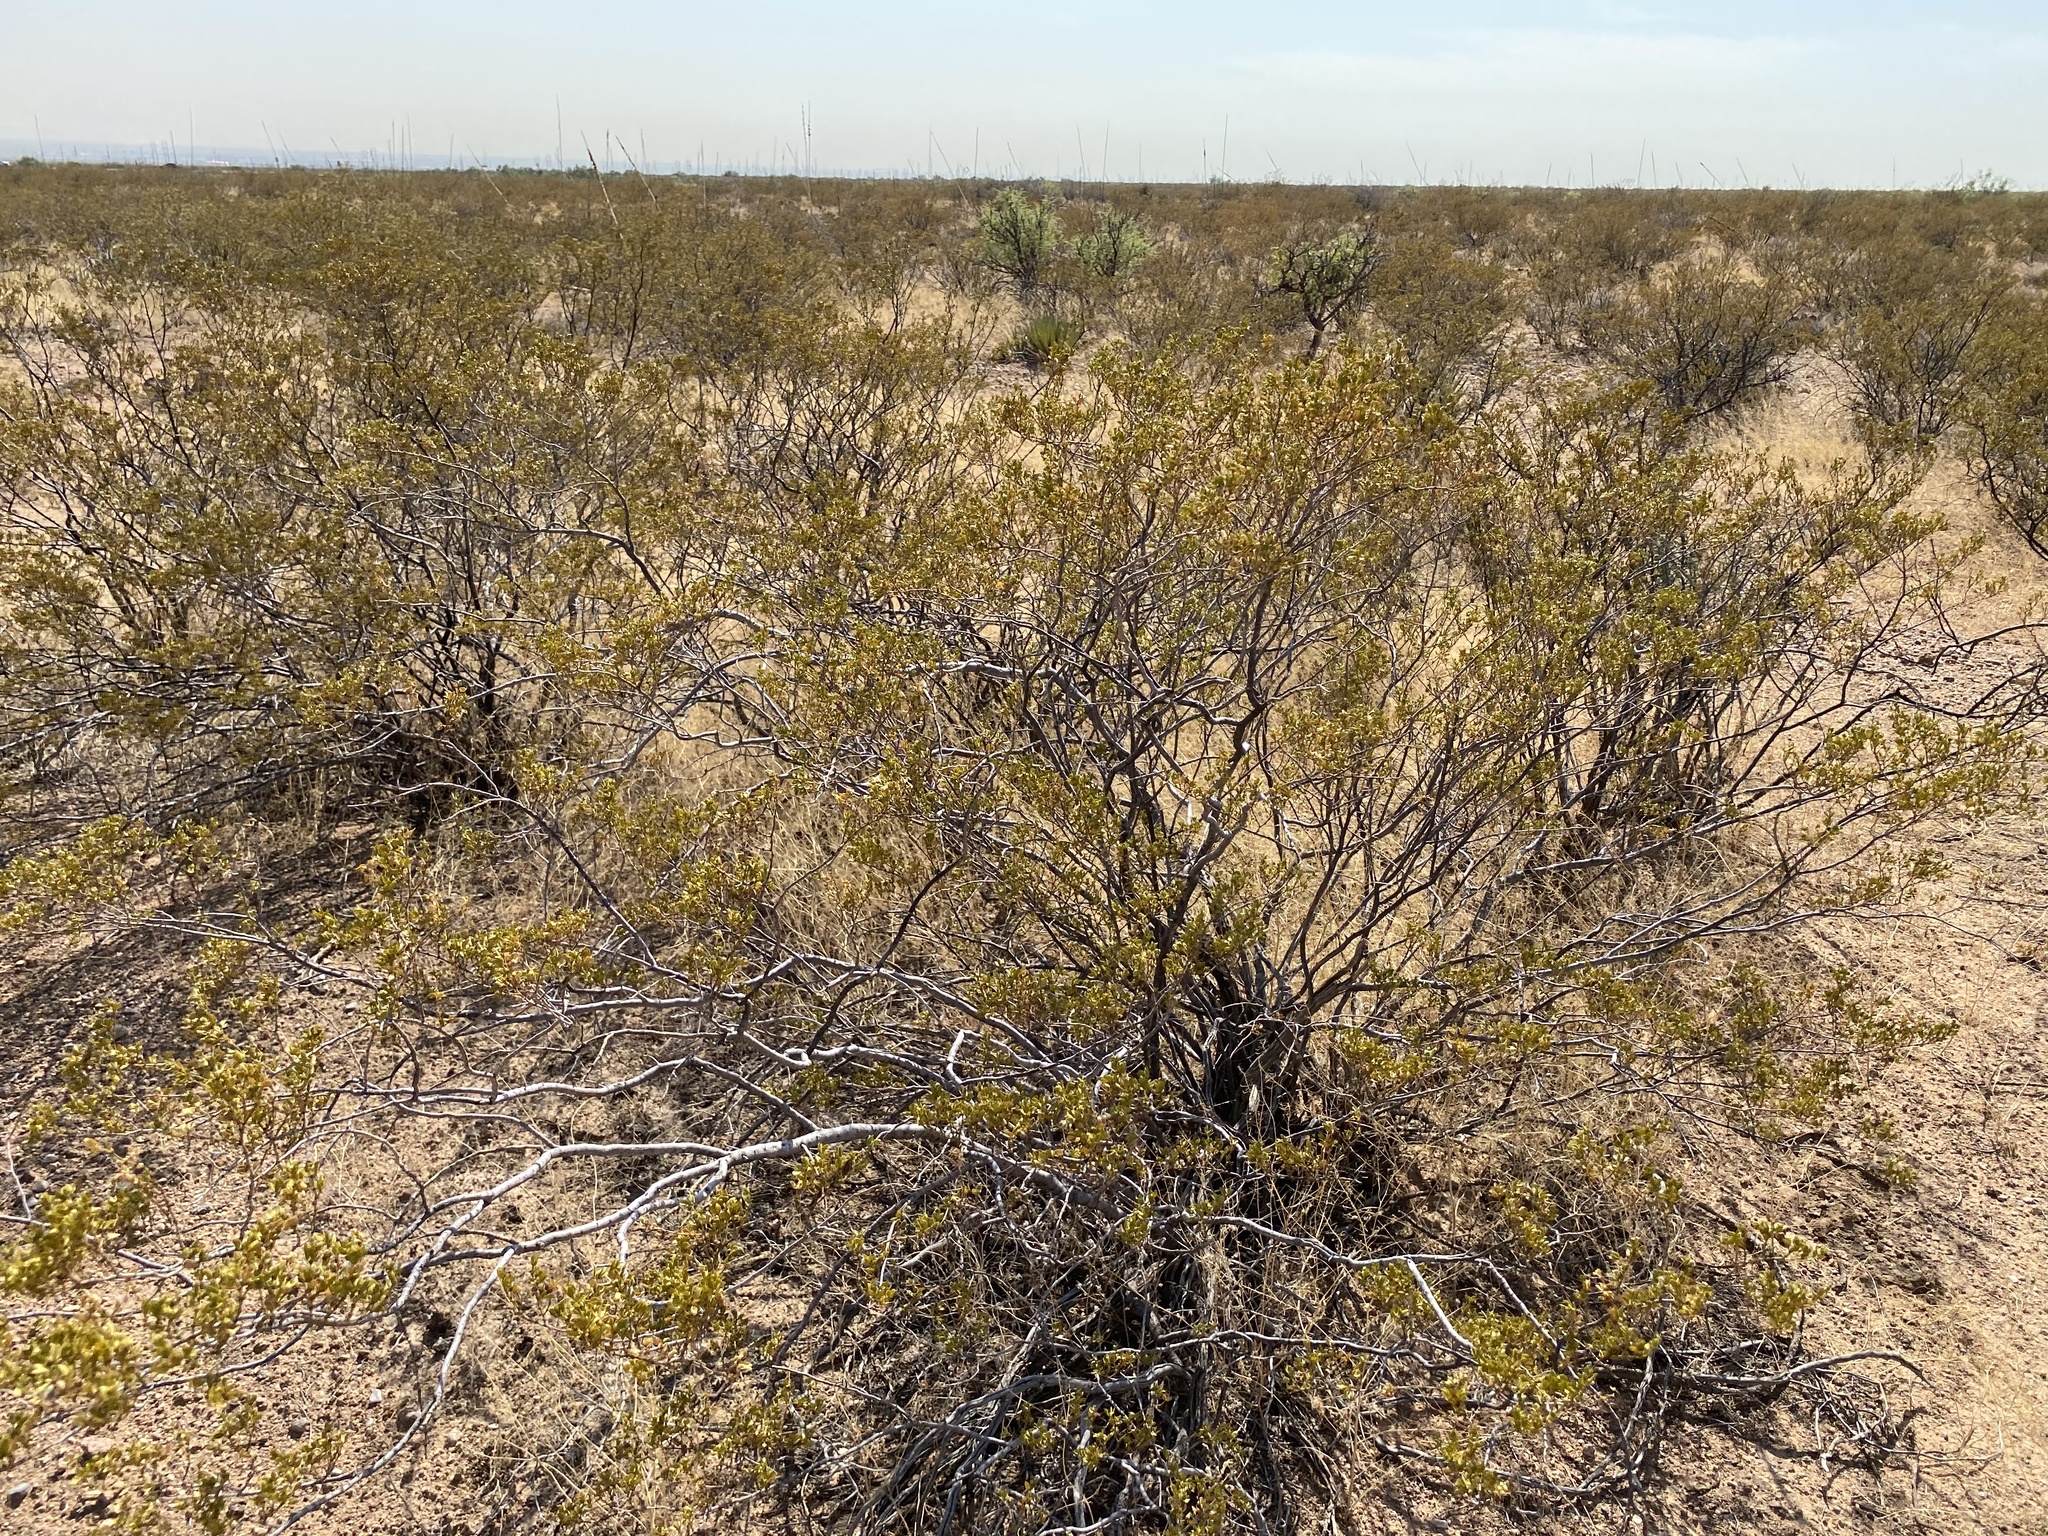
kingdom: Plantae
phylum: Tracheophyta
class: Magnoliopsida
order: Zygophyllales
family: Zygophyllaceae
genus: Larrea
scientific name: Larrea tridentata
